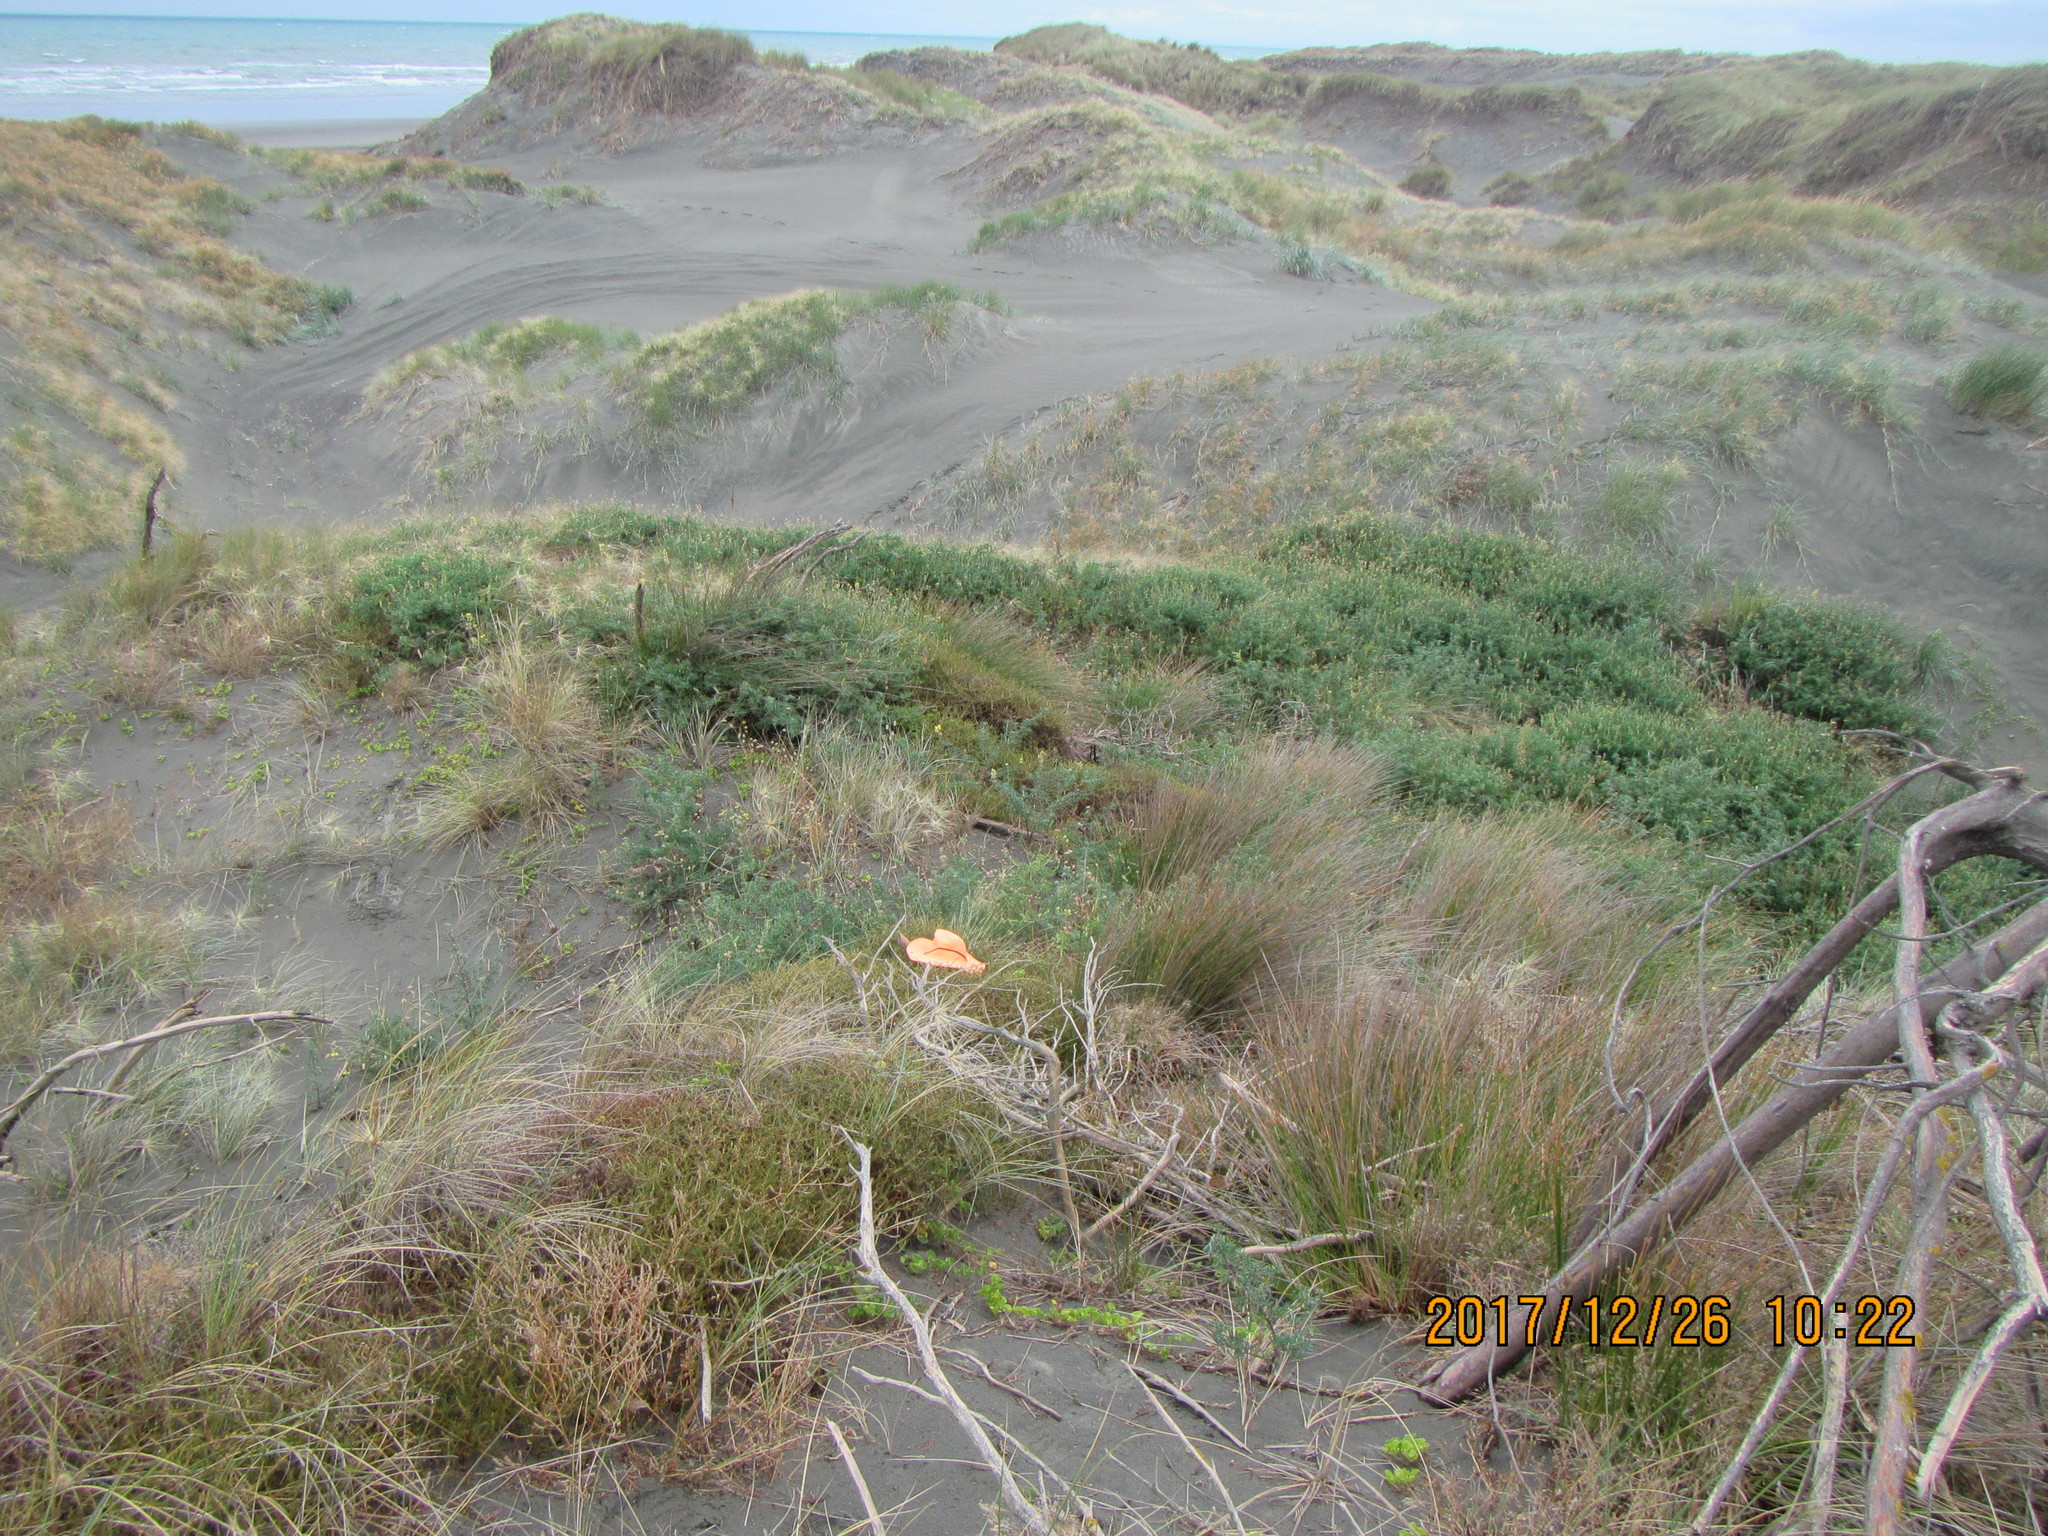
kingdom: Plantae
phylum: Tracheophyta
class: Magnoliopsida
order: Gentianales
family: Rubiaceae
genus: Coprosma
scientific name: Coprosma acerosa
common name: Sand coprosma
